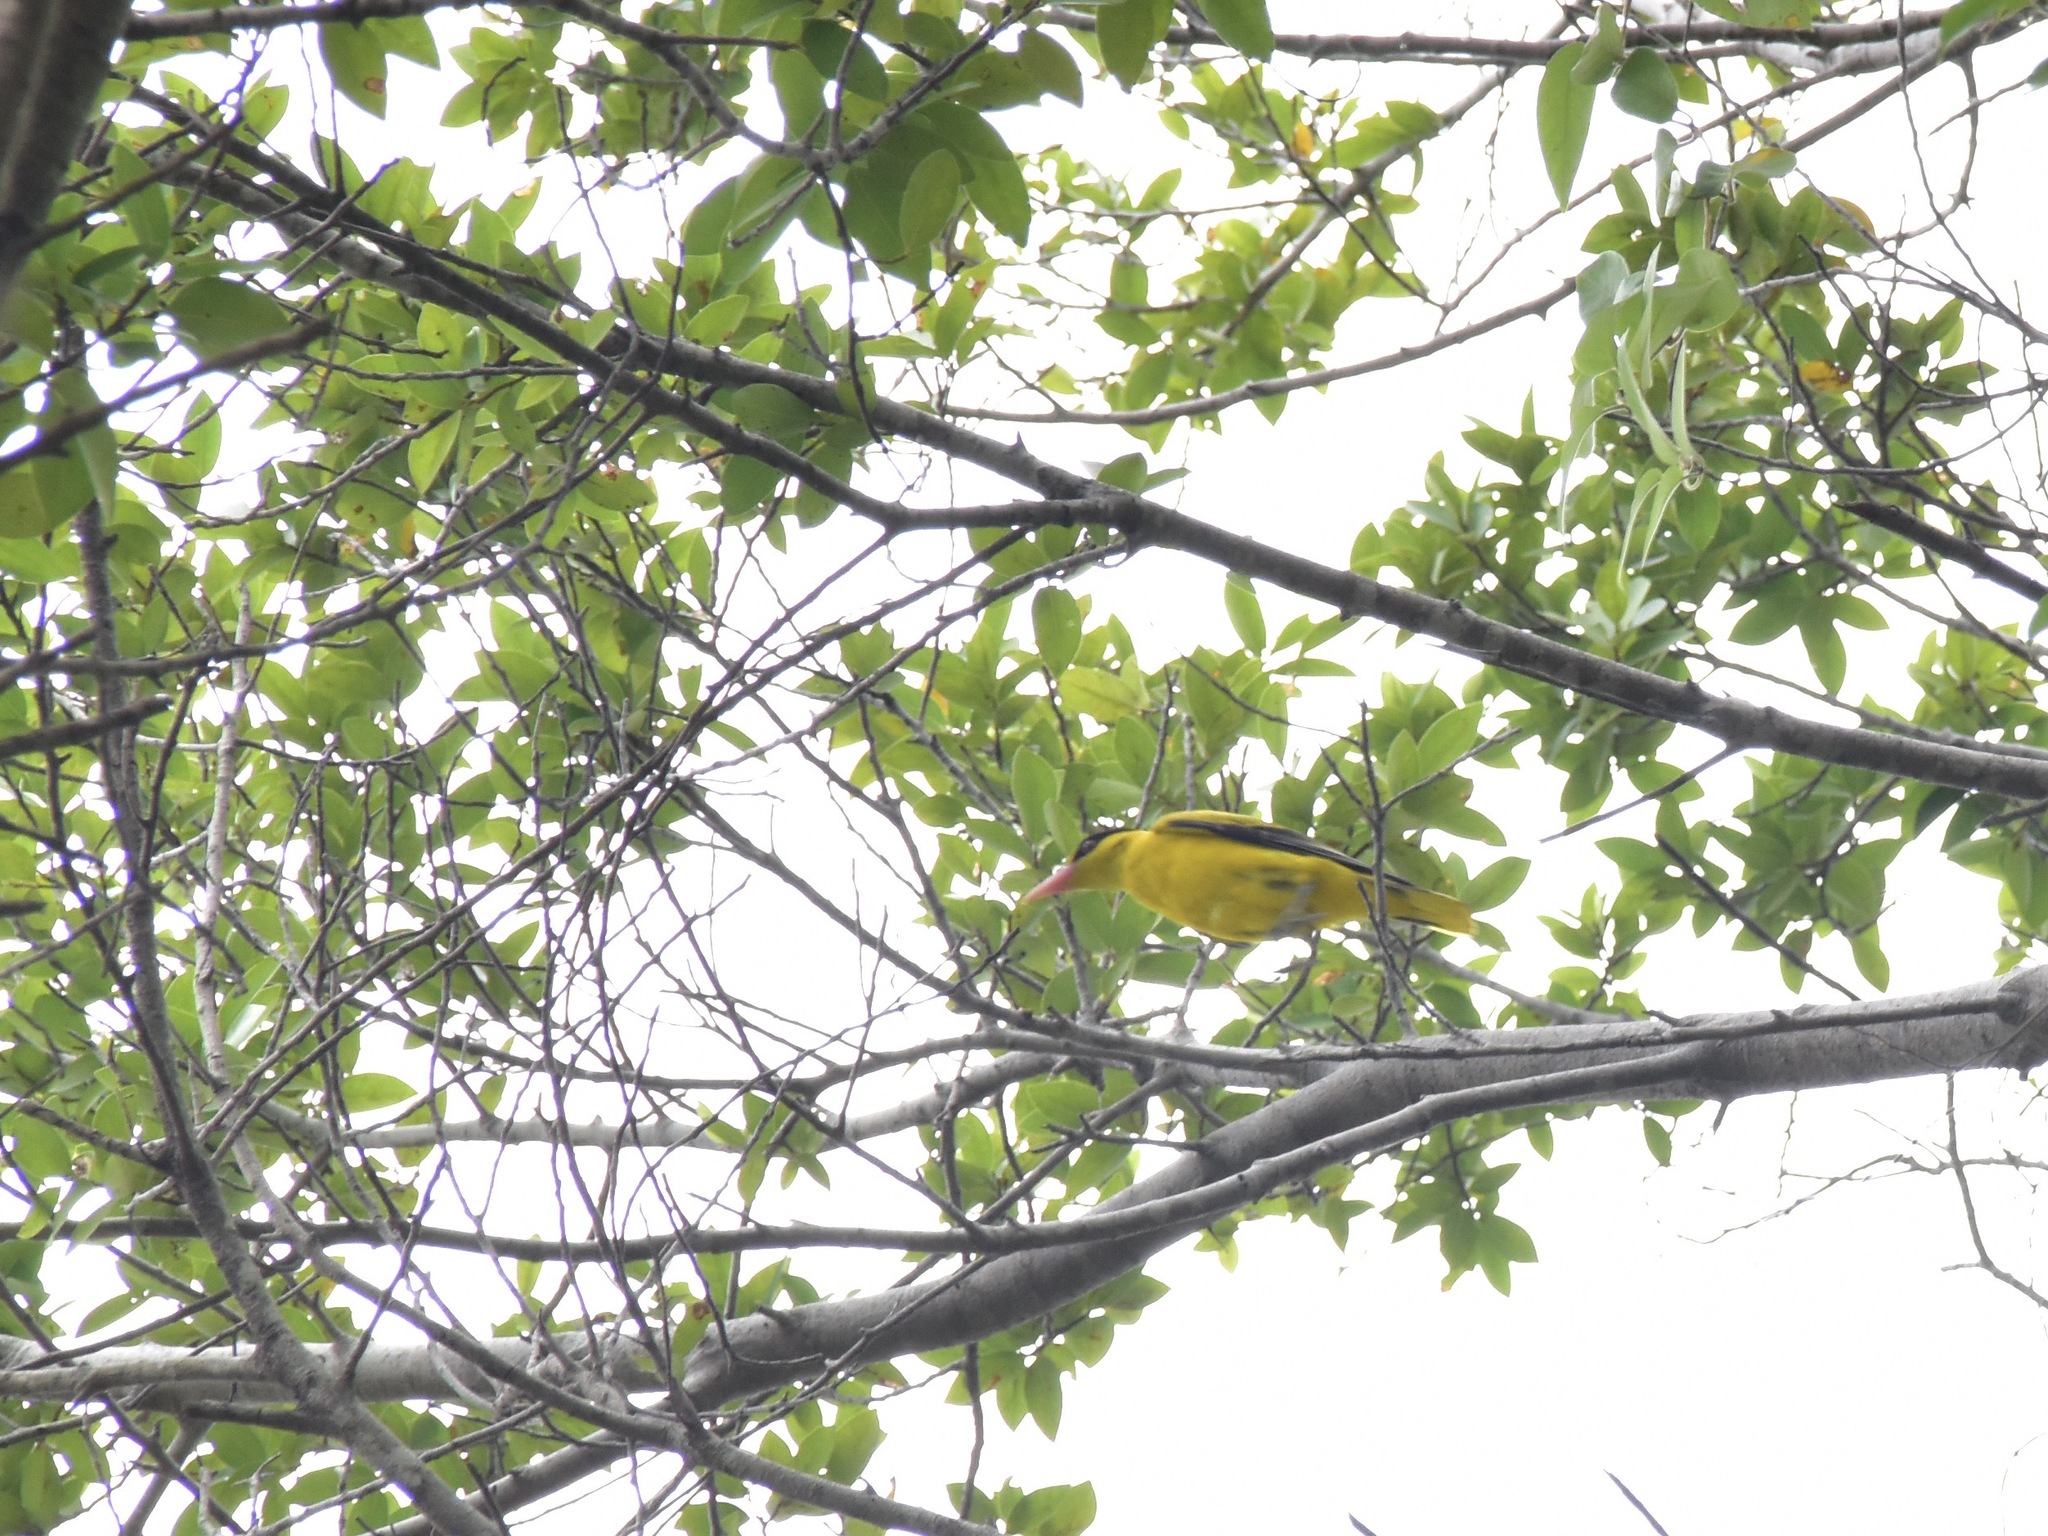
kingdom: Animalia
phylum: Chordata
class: Aves
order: Passeriformes
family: Oriolidae
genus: Oriolus
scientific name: Oriolus chinensis
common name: Black-naped oriole
